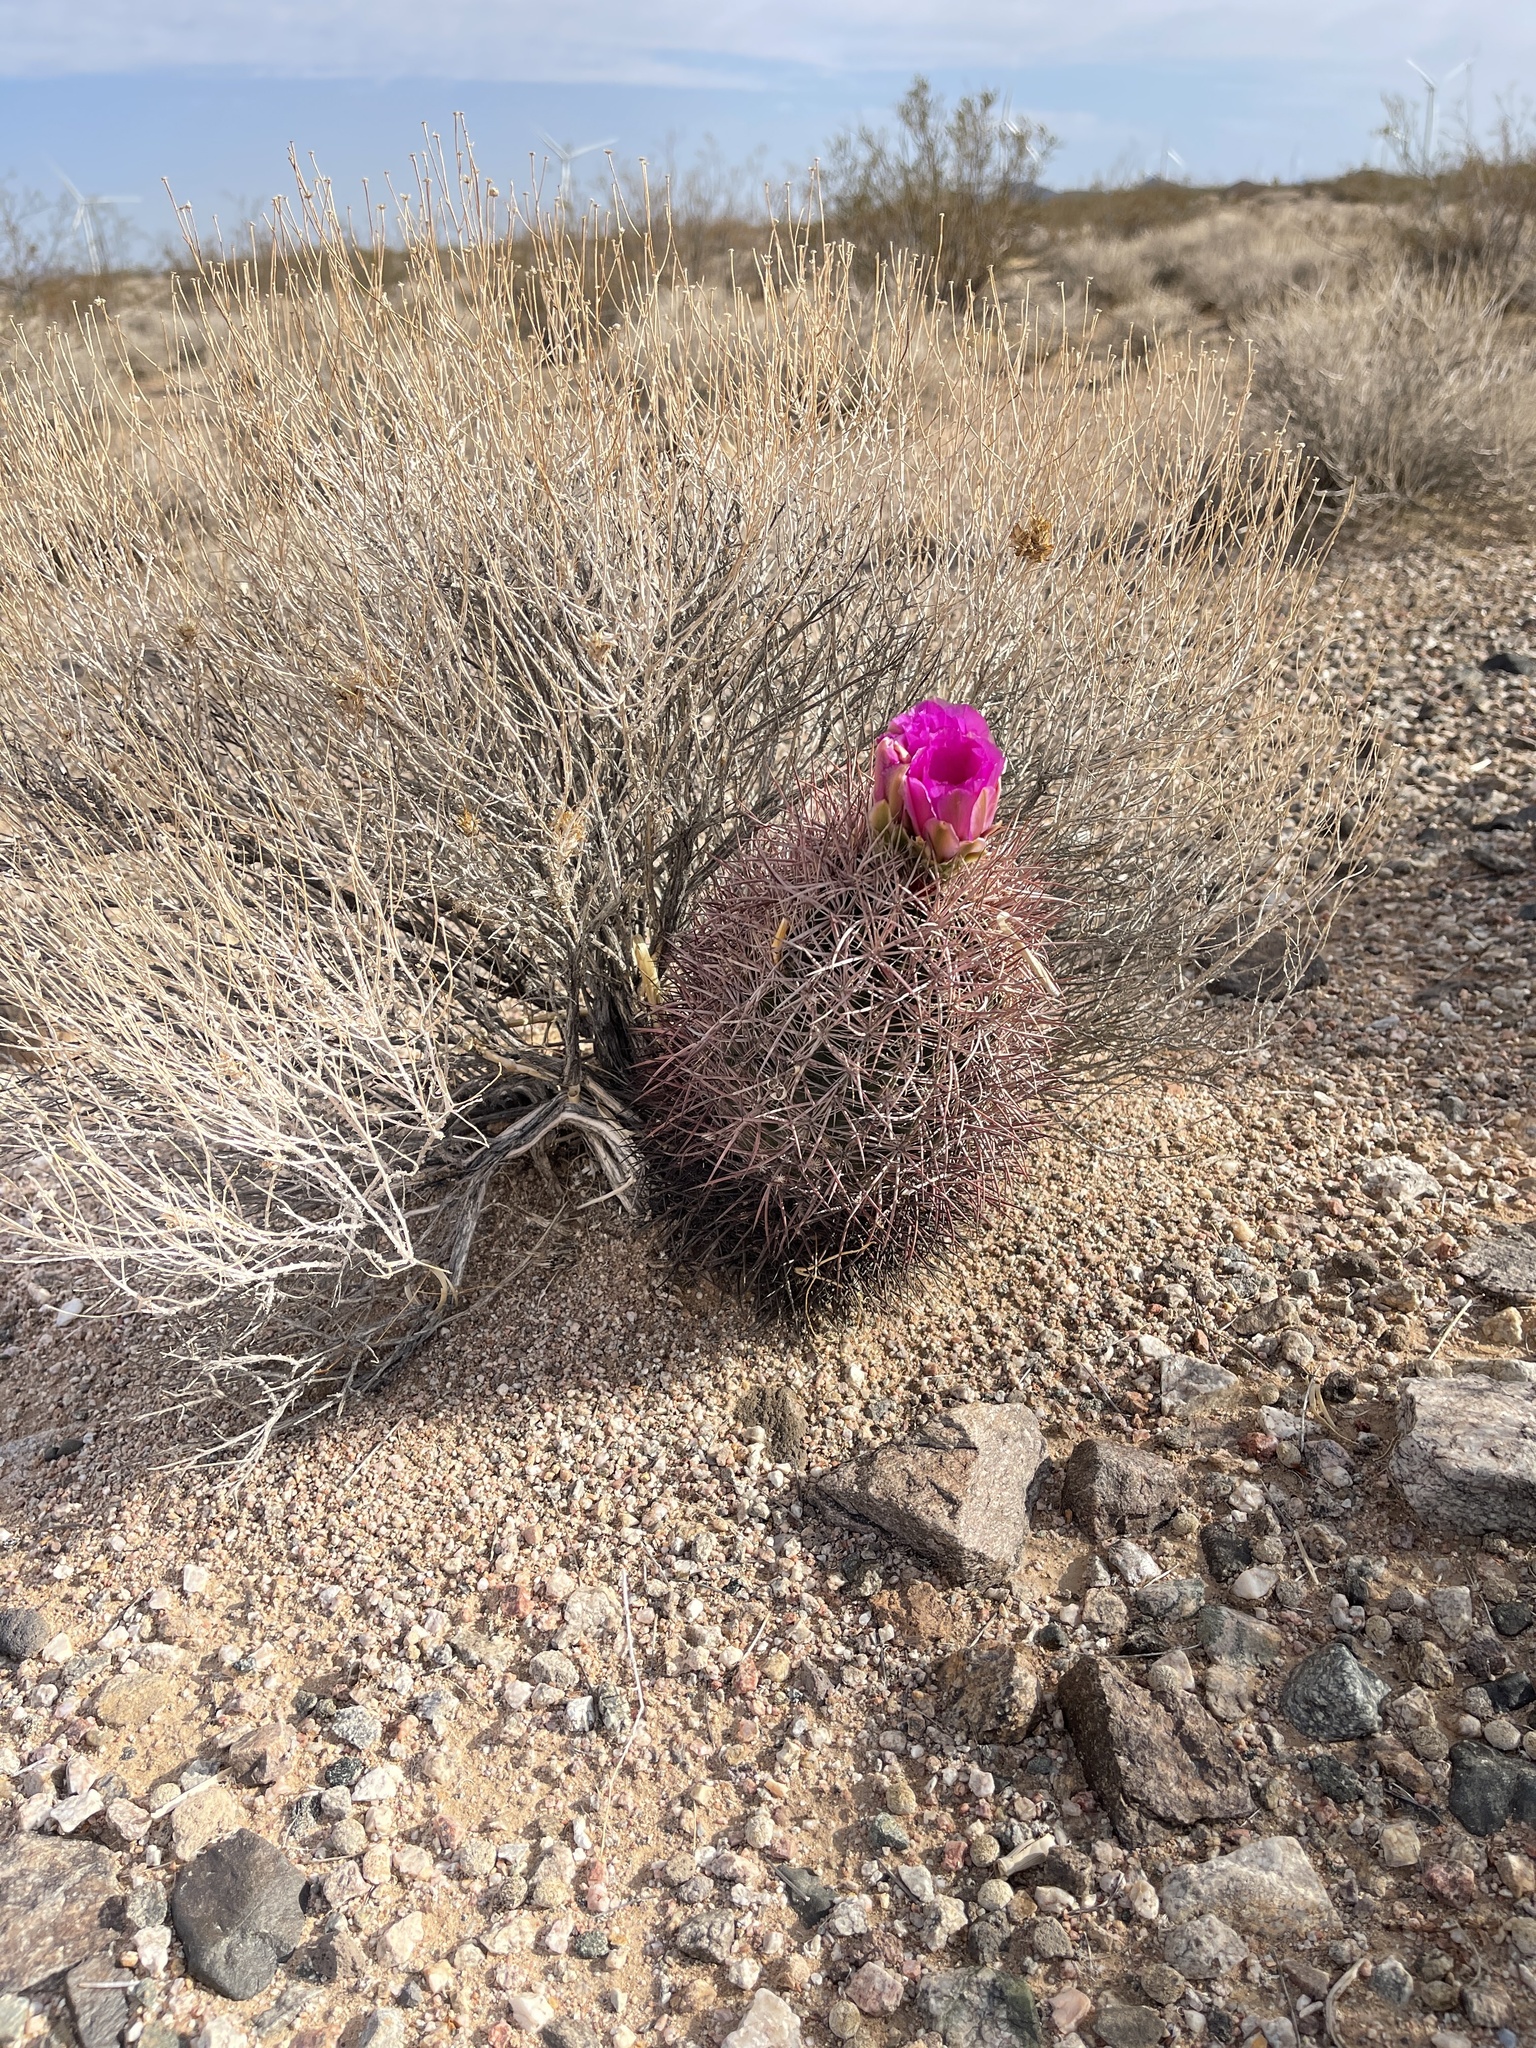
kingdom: Plantae
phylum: Tracheophyta
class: Magnoliopsida
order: Caryophyllales
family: Cactaceae
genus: Sclerocactus
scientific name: Sclerocactus johnsonii
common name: Eight-spine fishhook cactus
